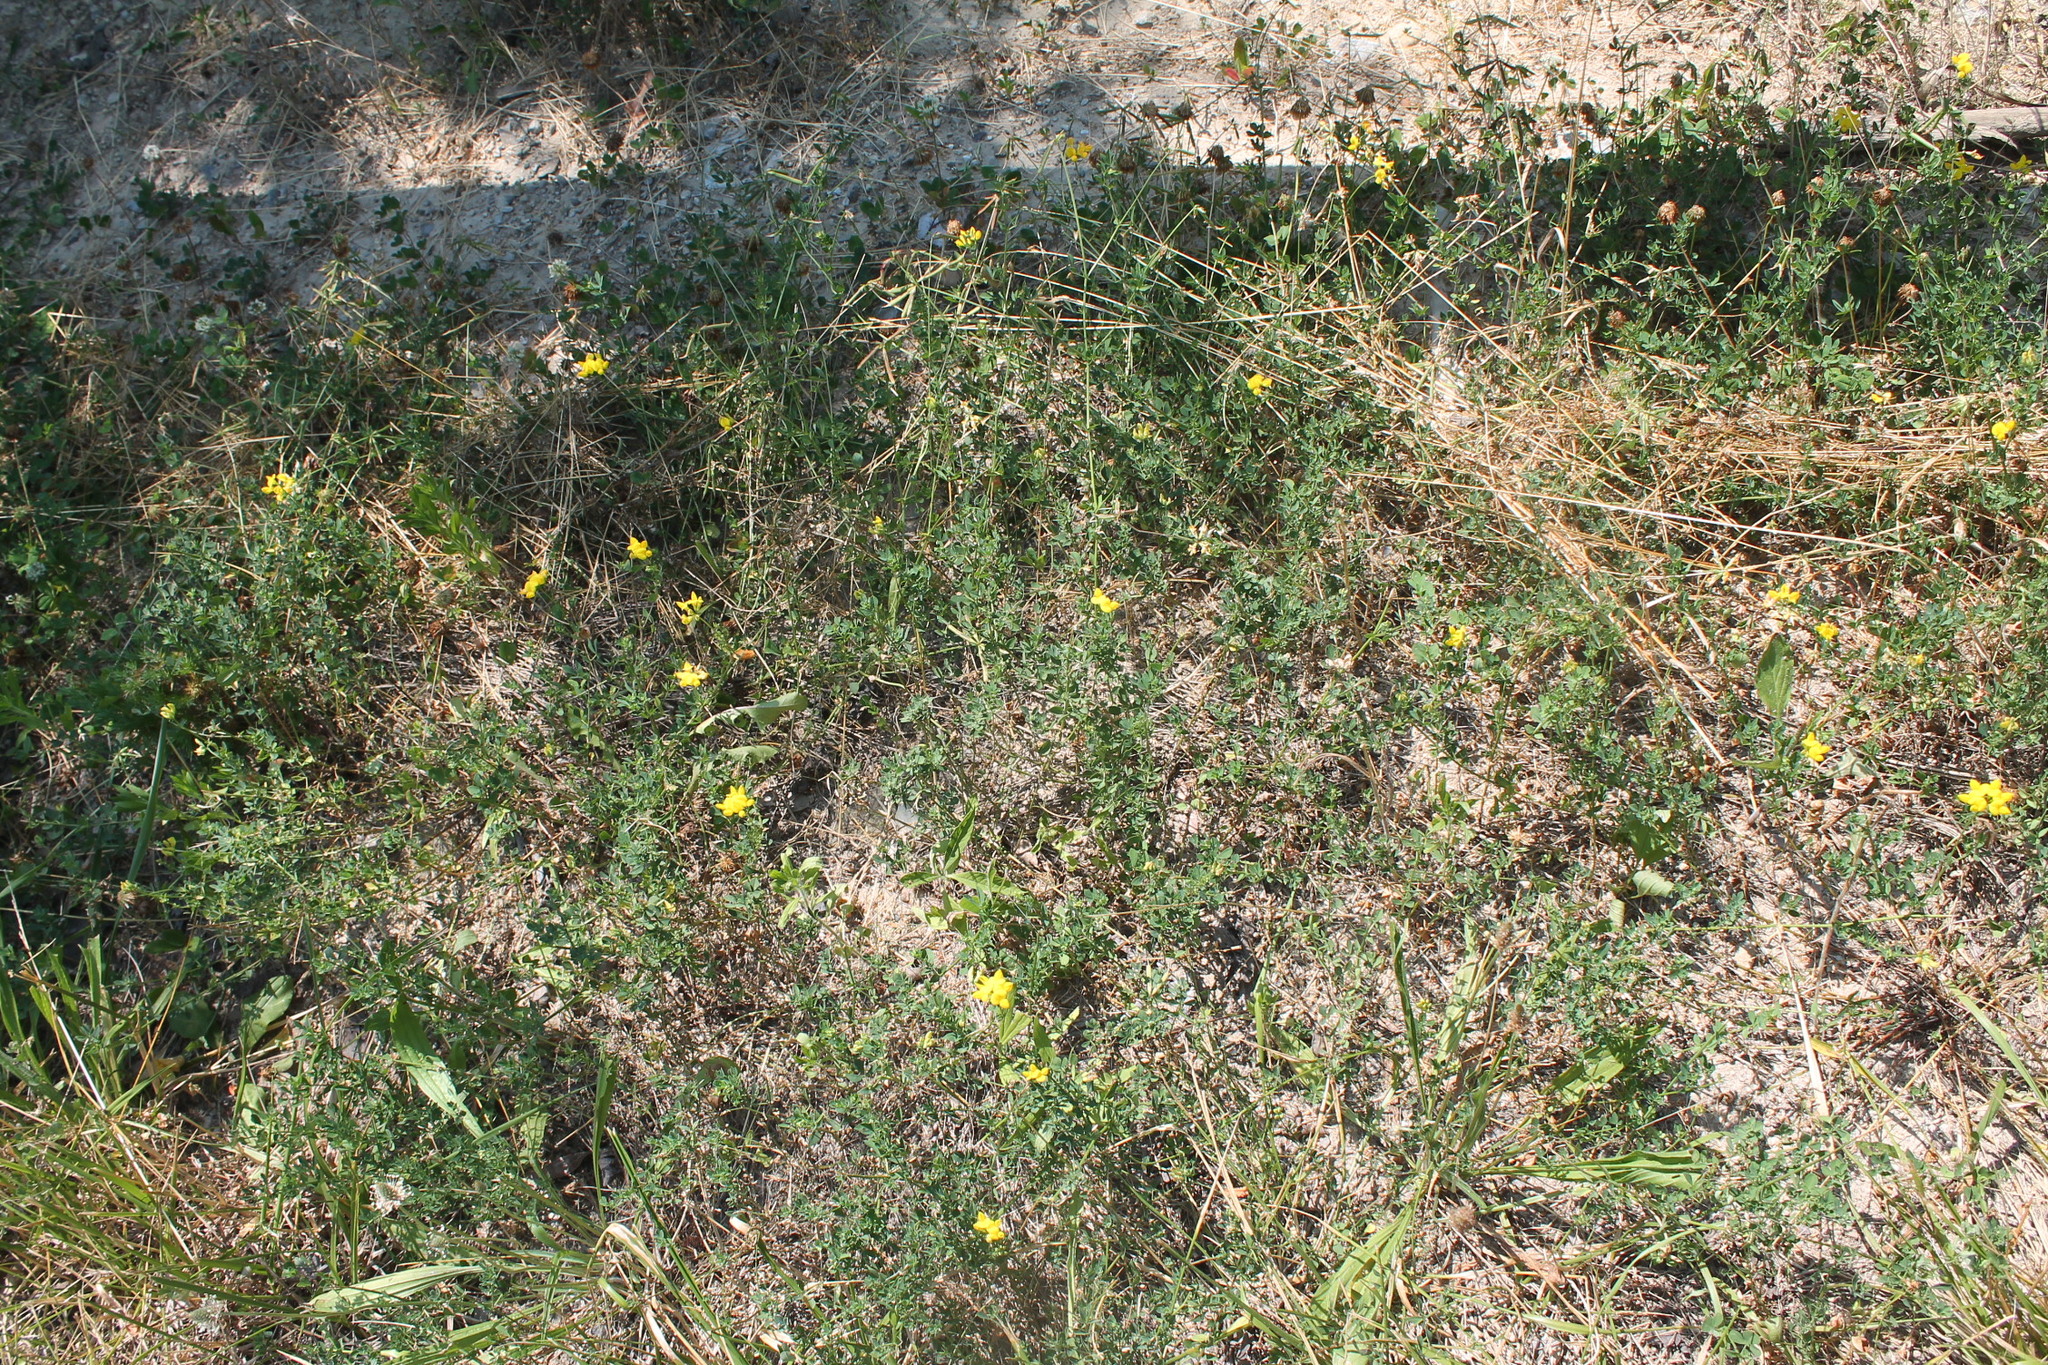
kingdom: Plantae
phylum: Tracheophyta
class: Magnoliopsida
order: Fabales
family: Fabaceae
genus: Lotus
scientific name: Lotus corniculatus
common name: Common bird's-foot-trefoil
